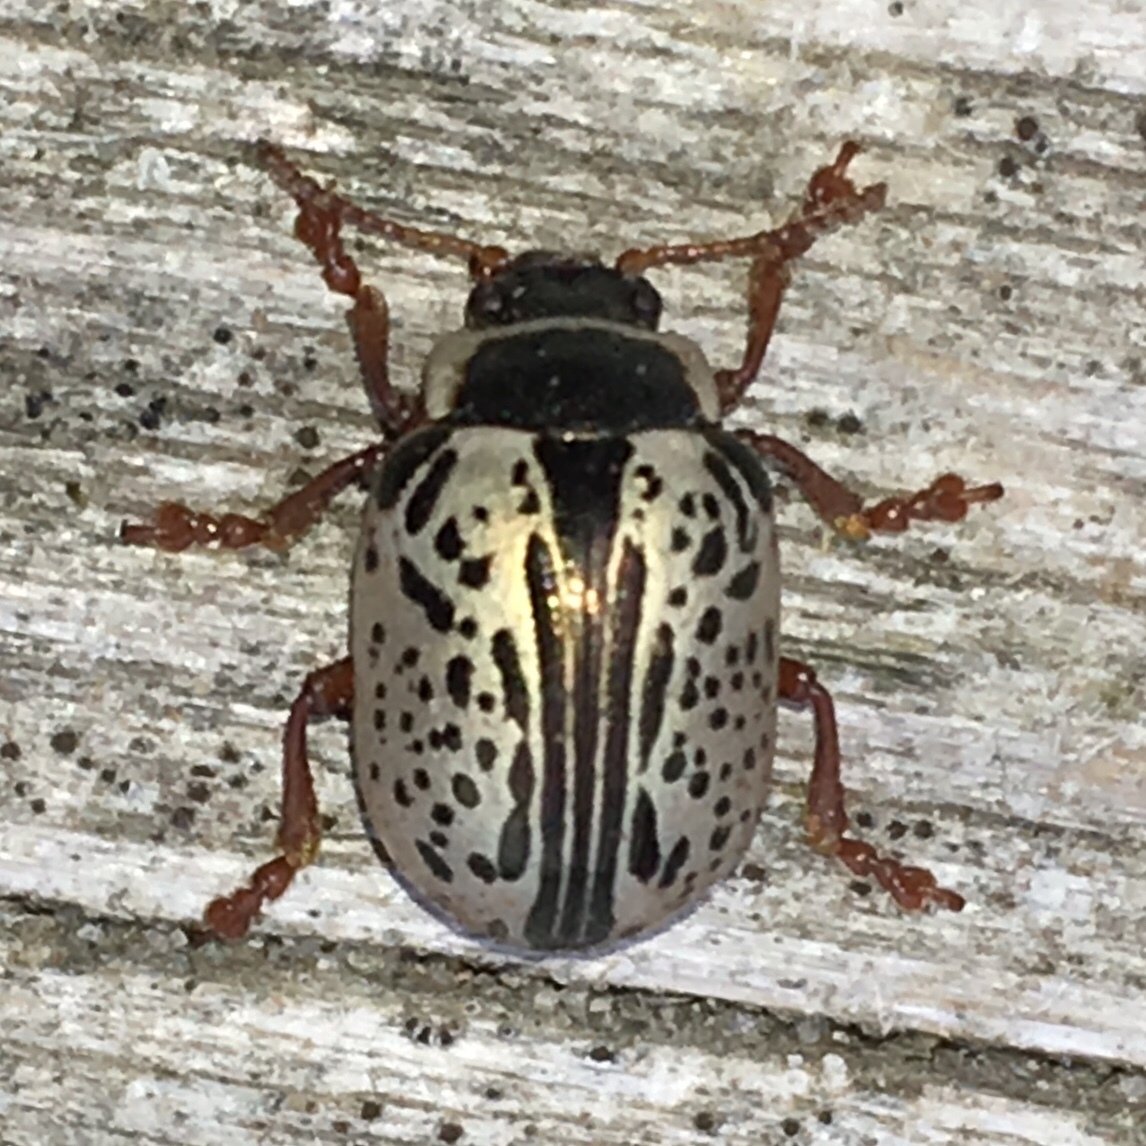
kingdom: Animalia
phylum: Arthropoda
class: Insecta
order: Coleoptera
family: Chrysomelidae
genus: Calligrapha
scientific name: Calligrapha multipunctata
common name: Common willow calligrapher beetle
